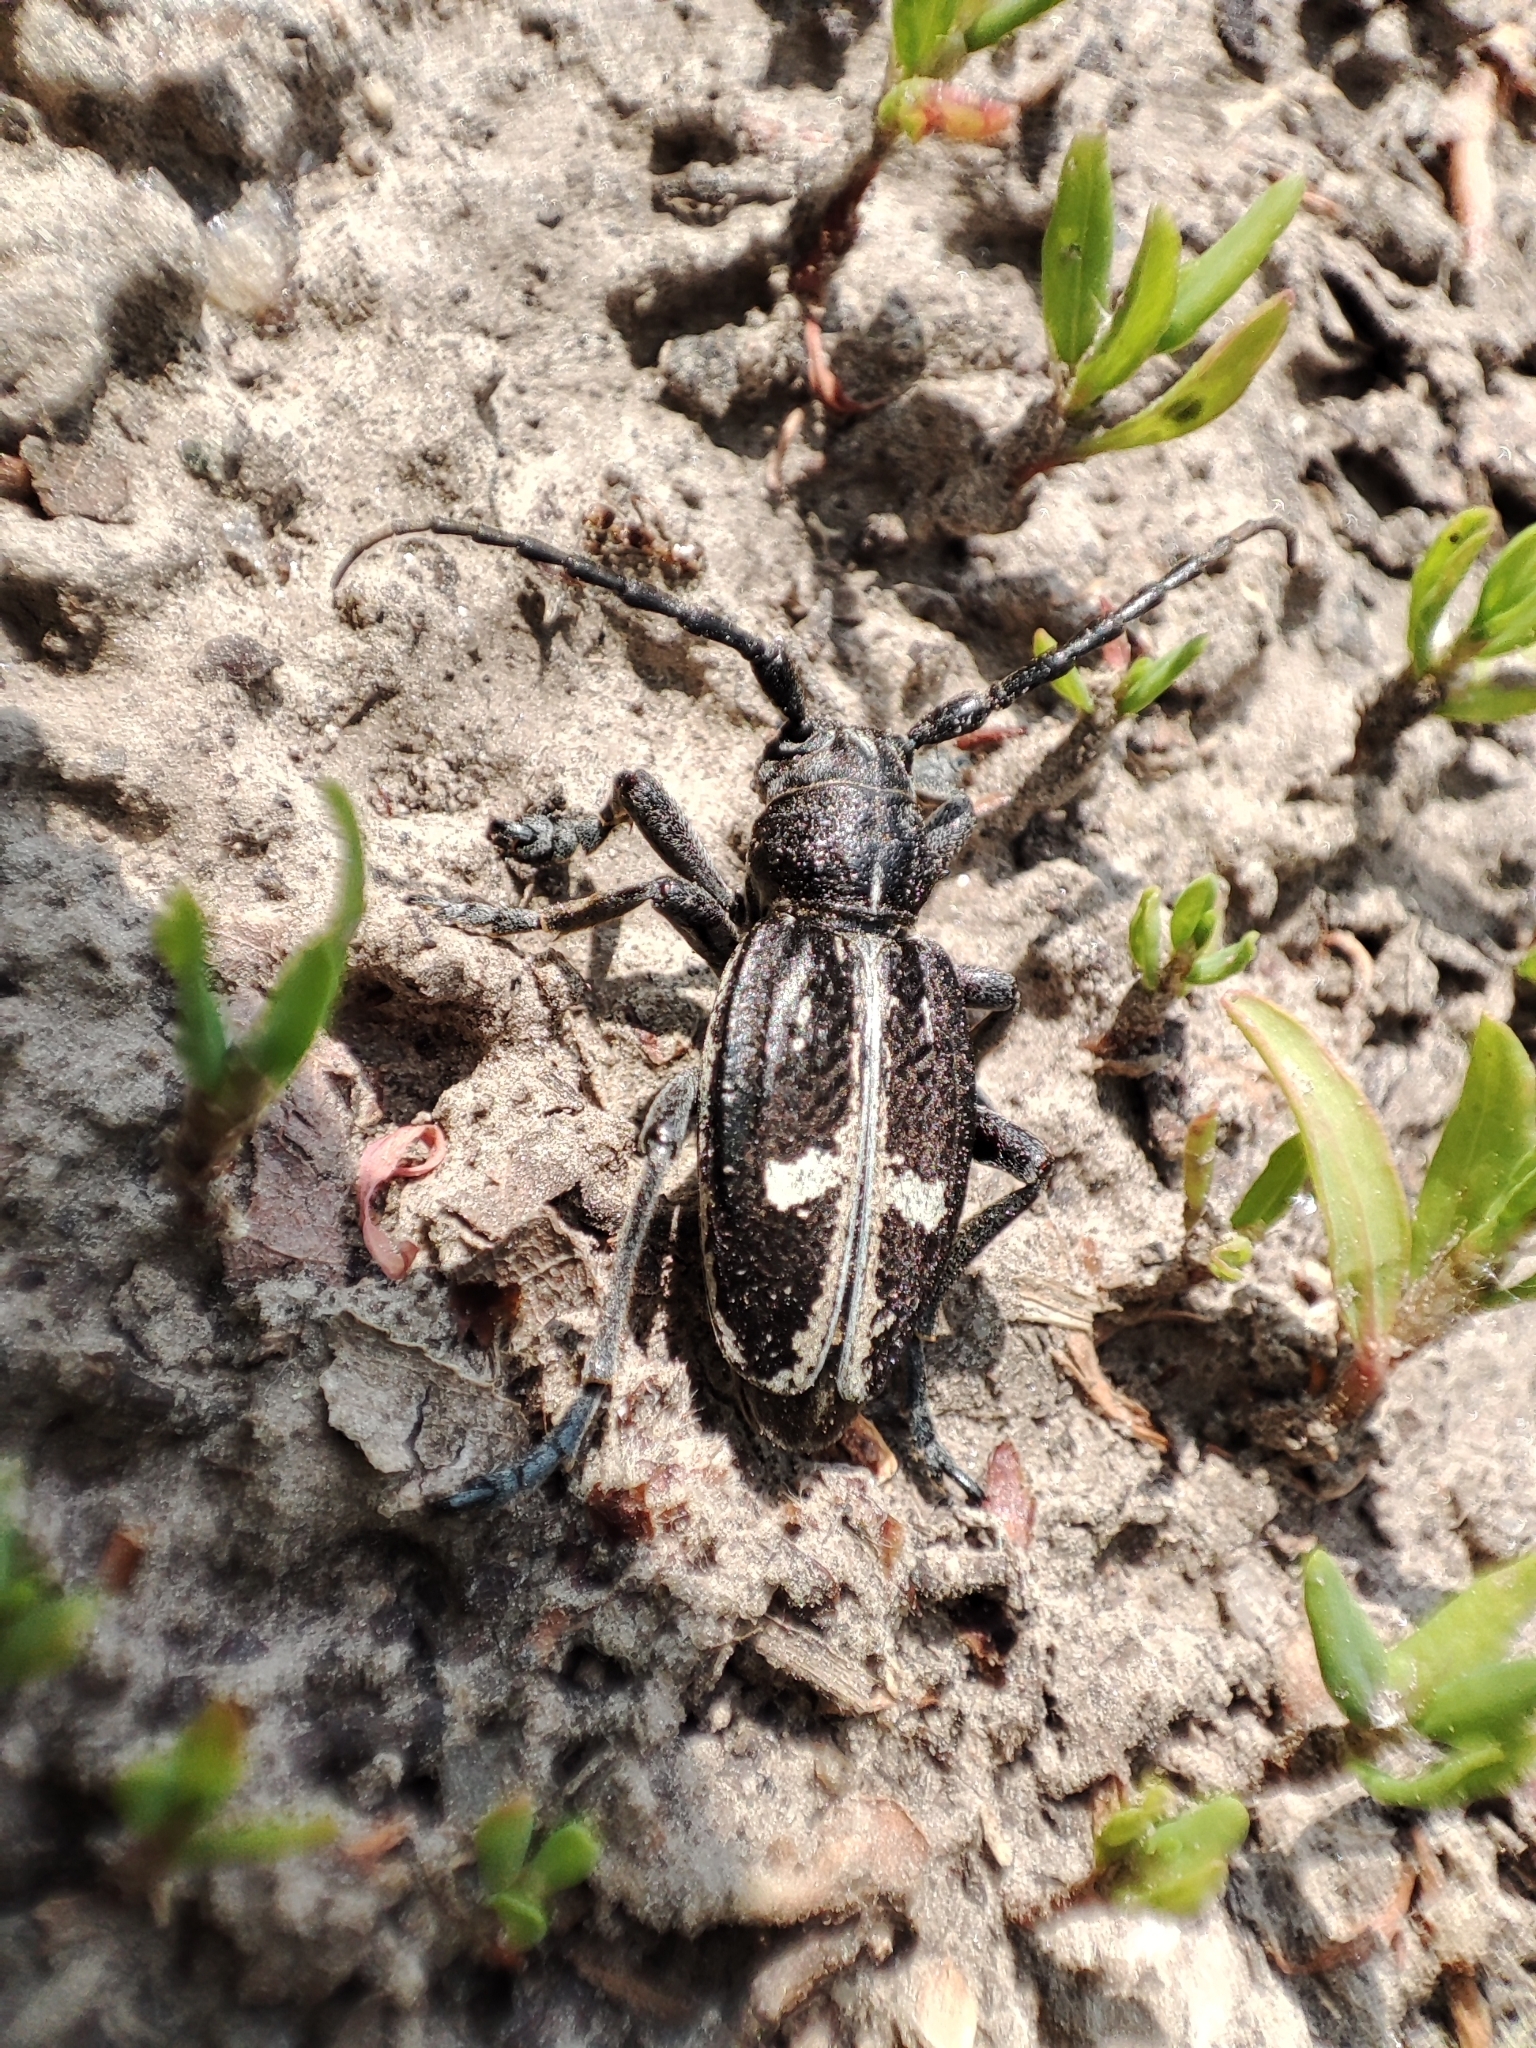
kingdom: Animalia
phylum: Arthropoda
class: Insecta
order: Coleoptera
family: Cerambycidae
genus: Dorcadion
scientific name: Dorcadion equestre
